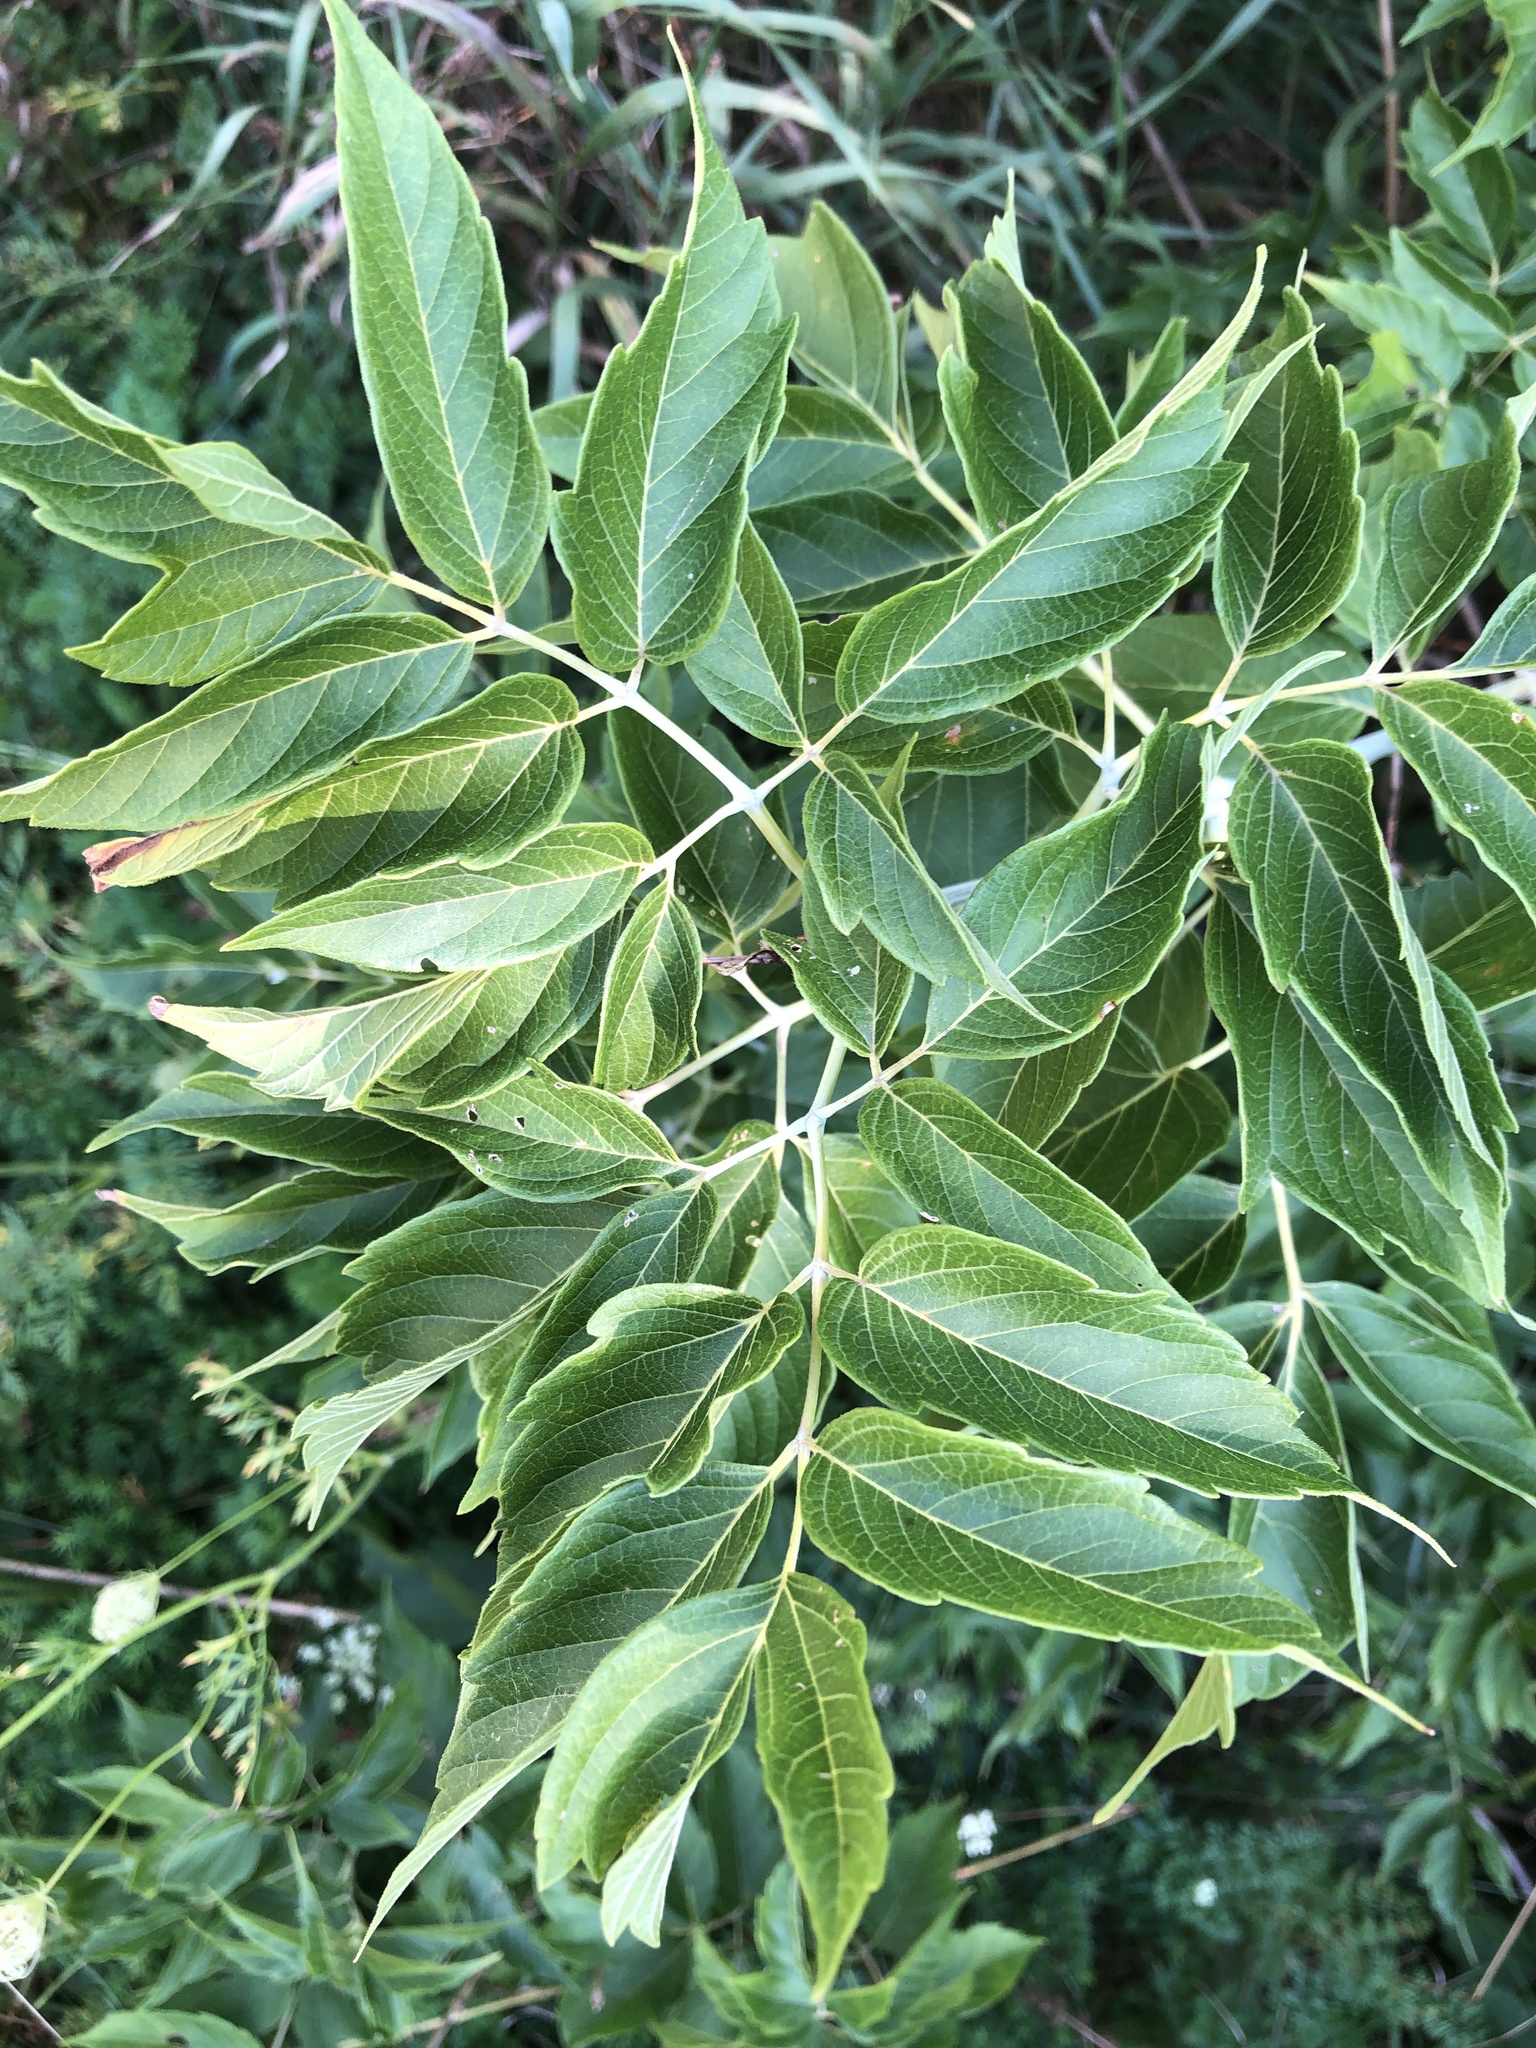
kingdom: Plantae
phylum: Tracheophyta
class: Magnoliopsida
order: Sapindales
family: Sapindaceae
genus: Acer
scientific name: Acer negundo
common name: Ashleaf maple
